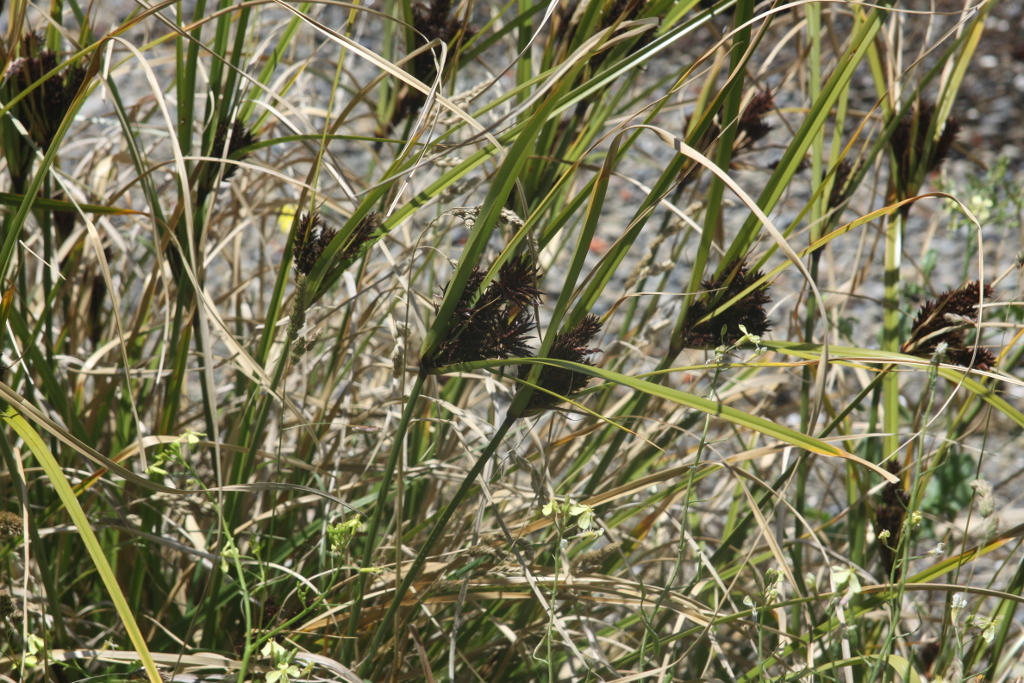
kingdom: Plantae
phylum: Tracheophyta
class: Liliopsida
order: Poales
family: Cyperaceae
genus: Cyperus
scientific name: Cyperus ustulatus
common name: Giant umbrella-sedge
